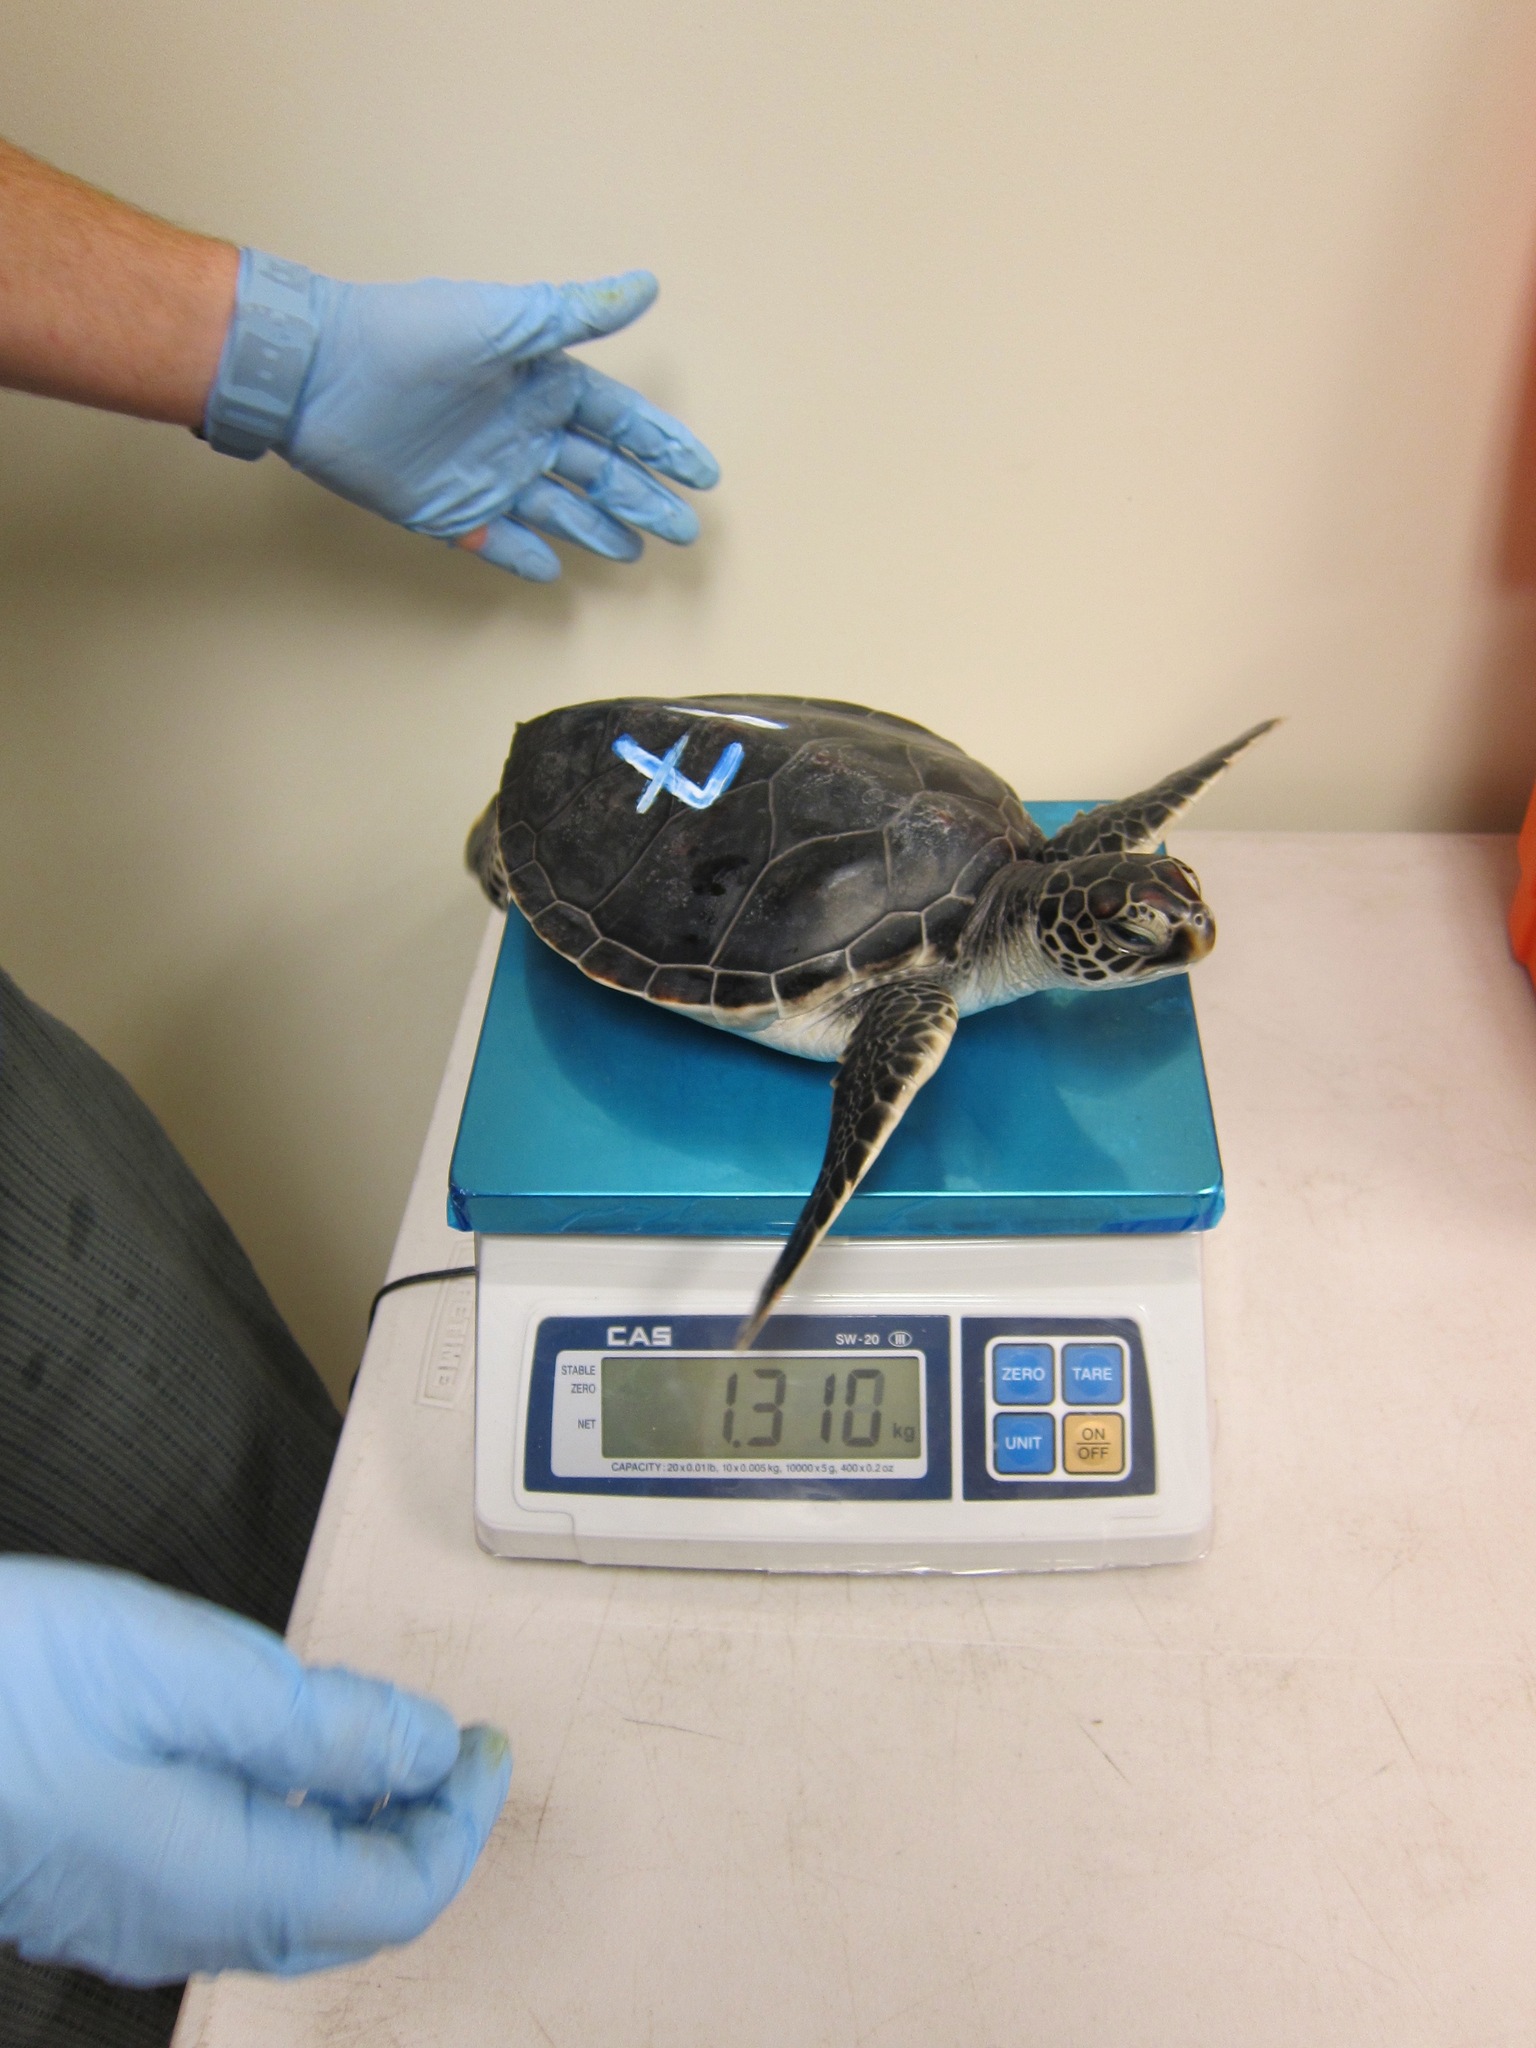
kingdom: Animalia
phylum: Chordata
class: Testudines
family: Cheloniidae
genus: Chelonia
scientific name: Chelonia mydas
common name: Green turtle
